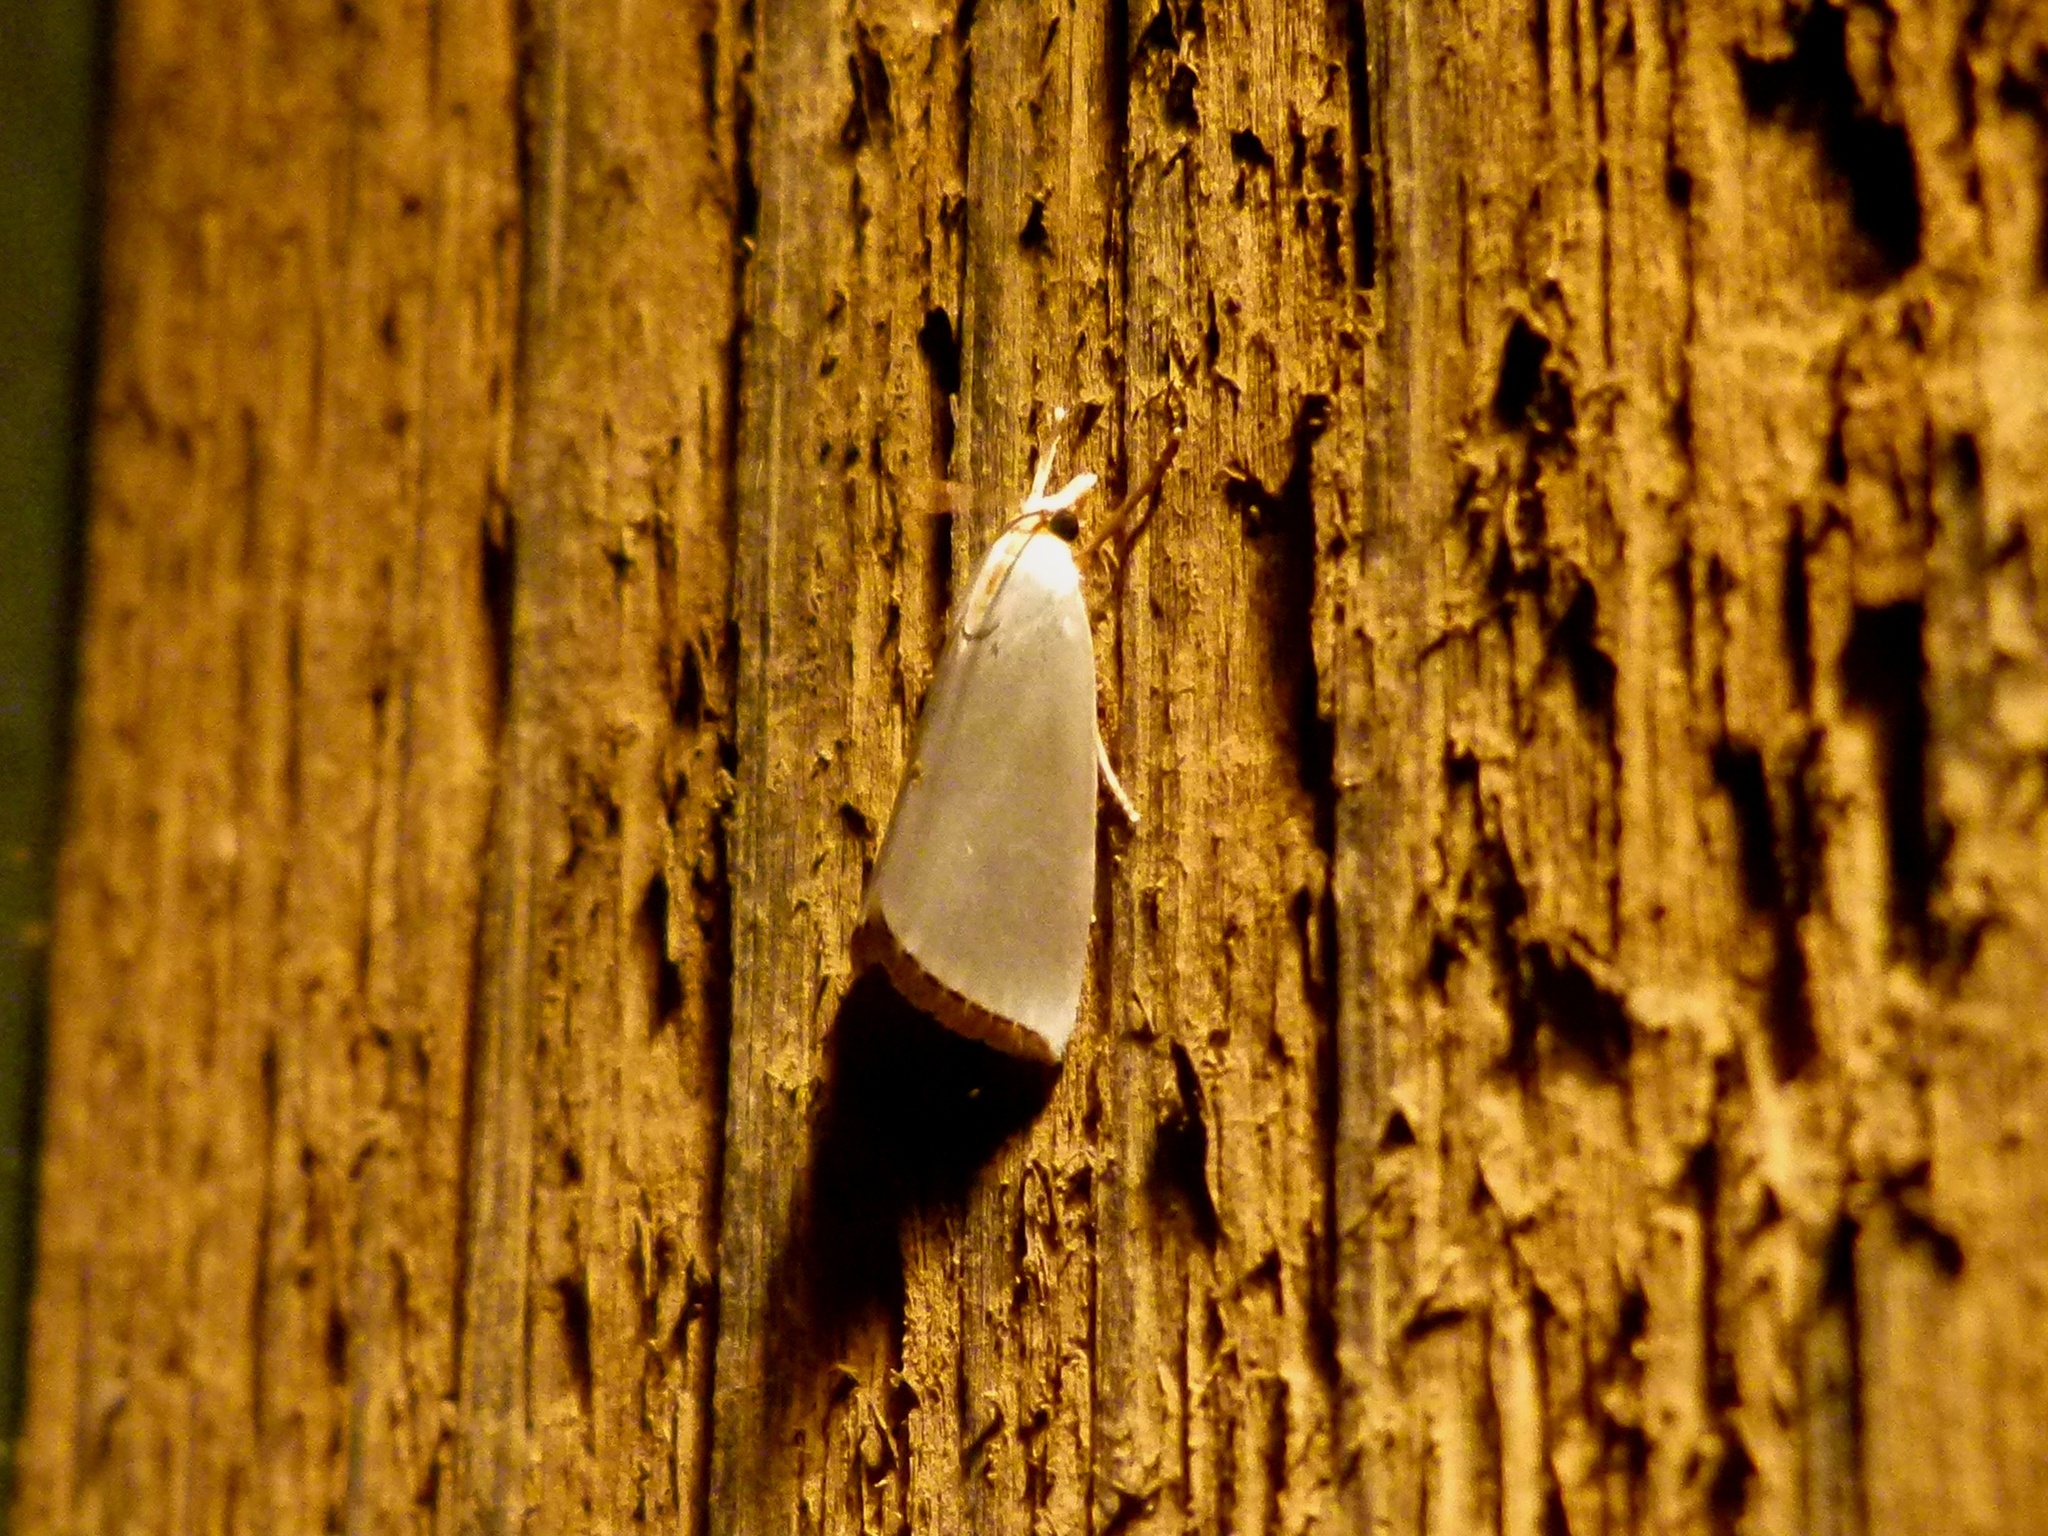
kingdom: Animalia
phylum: Arthropoda
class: Insecta
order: Lepidoptera
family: Crambidae
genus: Argyria
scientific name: Argyria nivalis
